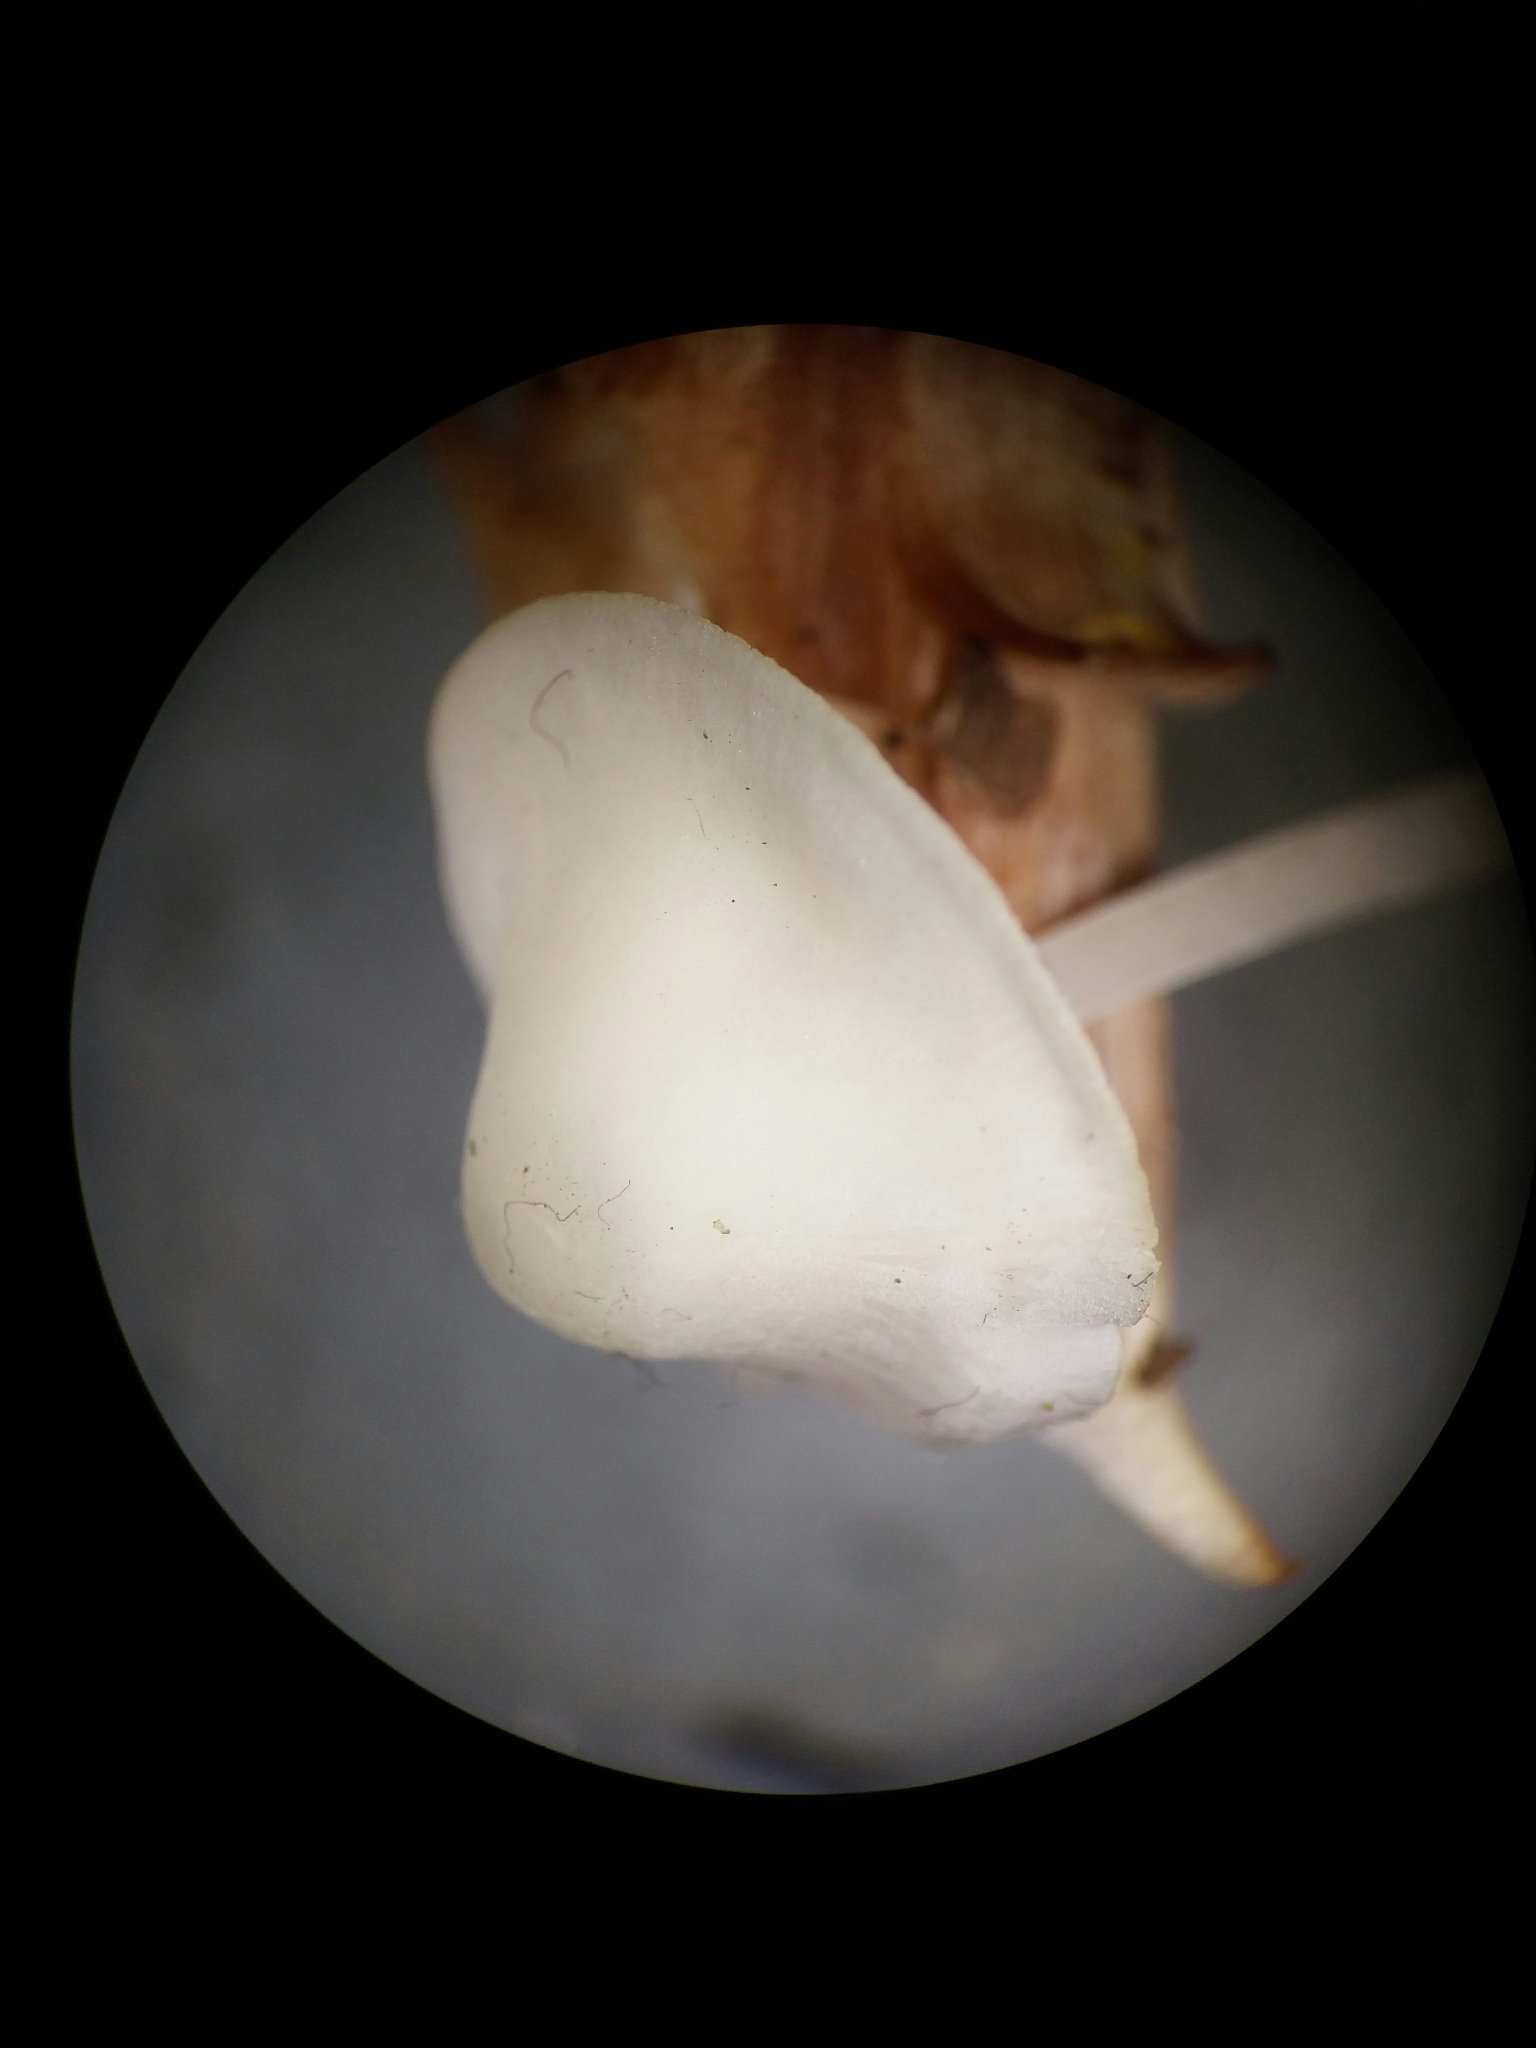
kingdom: Fungi
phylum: Basidiomycota
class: Agaricomycetes
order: Agaricales
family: Mycenaceae
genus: Hemimycena
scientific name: Hemimycena cucullata
